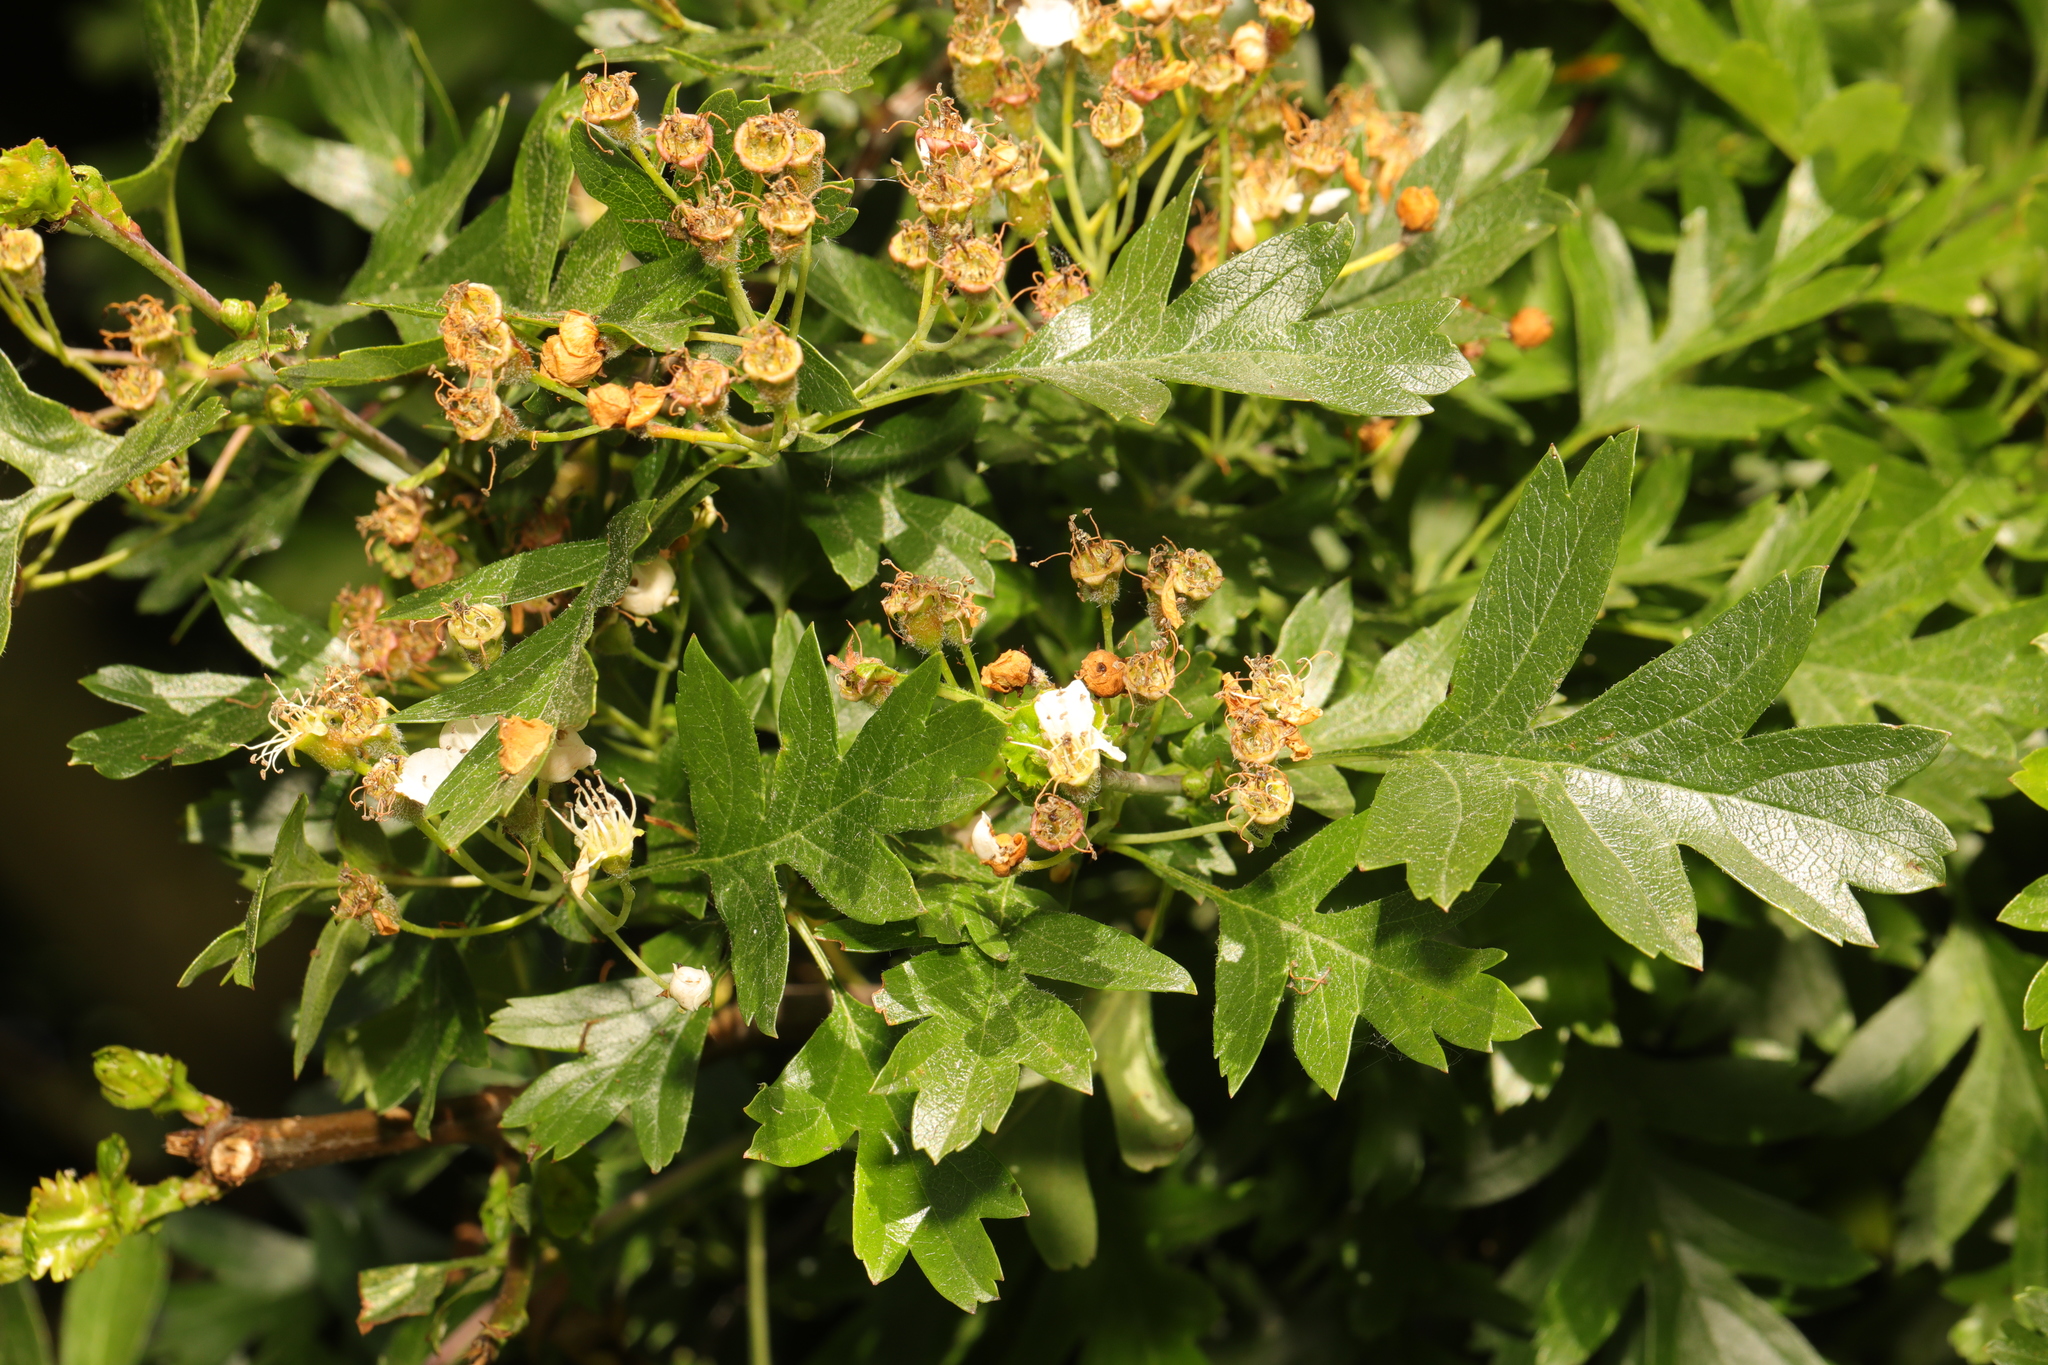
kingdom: Plantae
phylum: Tracheophyta
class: Magnoliopsida
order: Rosales
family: Rosaceae
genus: Crataegus
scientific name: Crataegus monogyna
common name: Hawthorn
